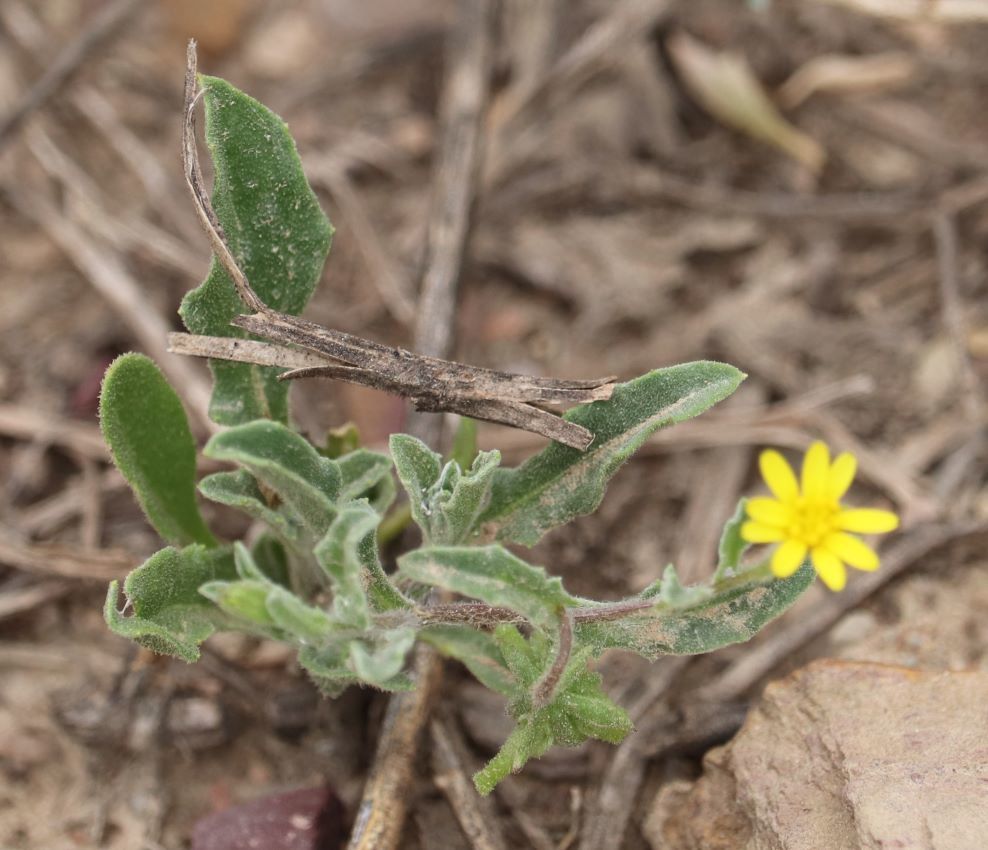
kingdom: Plantae
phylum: Tracheophyta
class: Magnoliopsida
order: Asterales
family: Asteraceae
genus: Osteospermum
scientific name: Osteospermum calendulaceum
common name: Stinking roger
